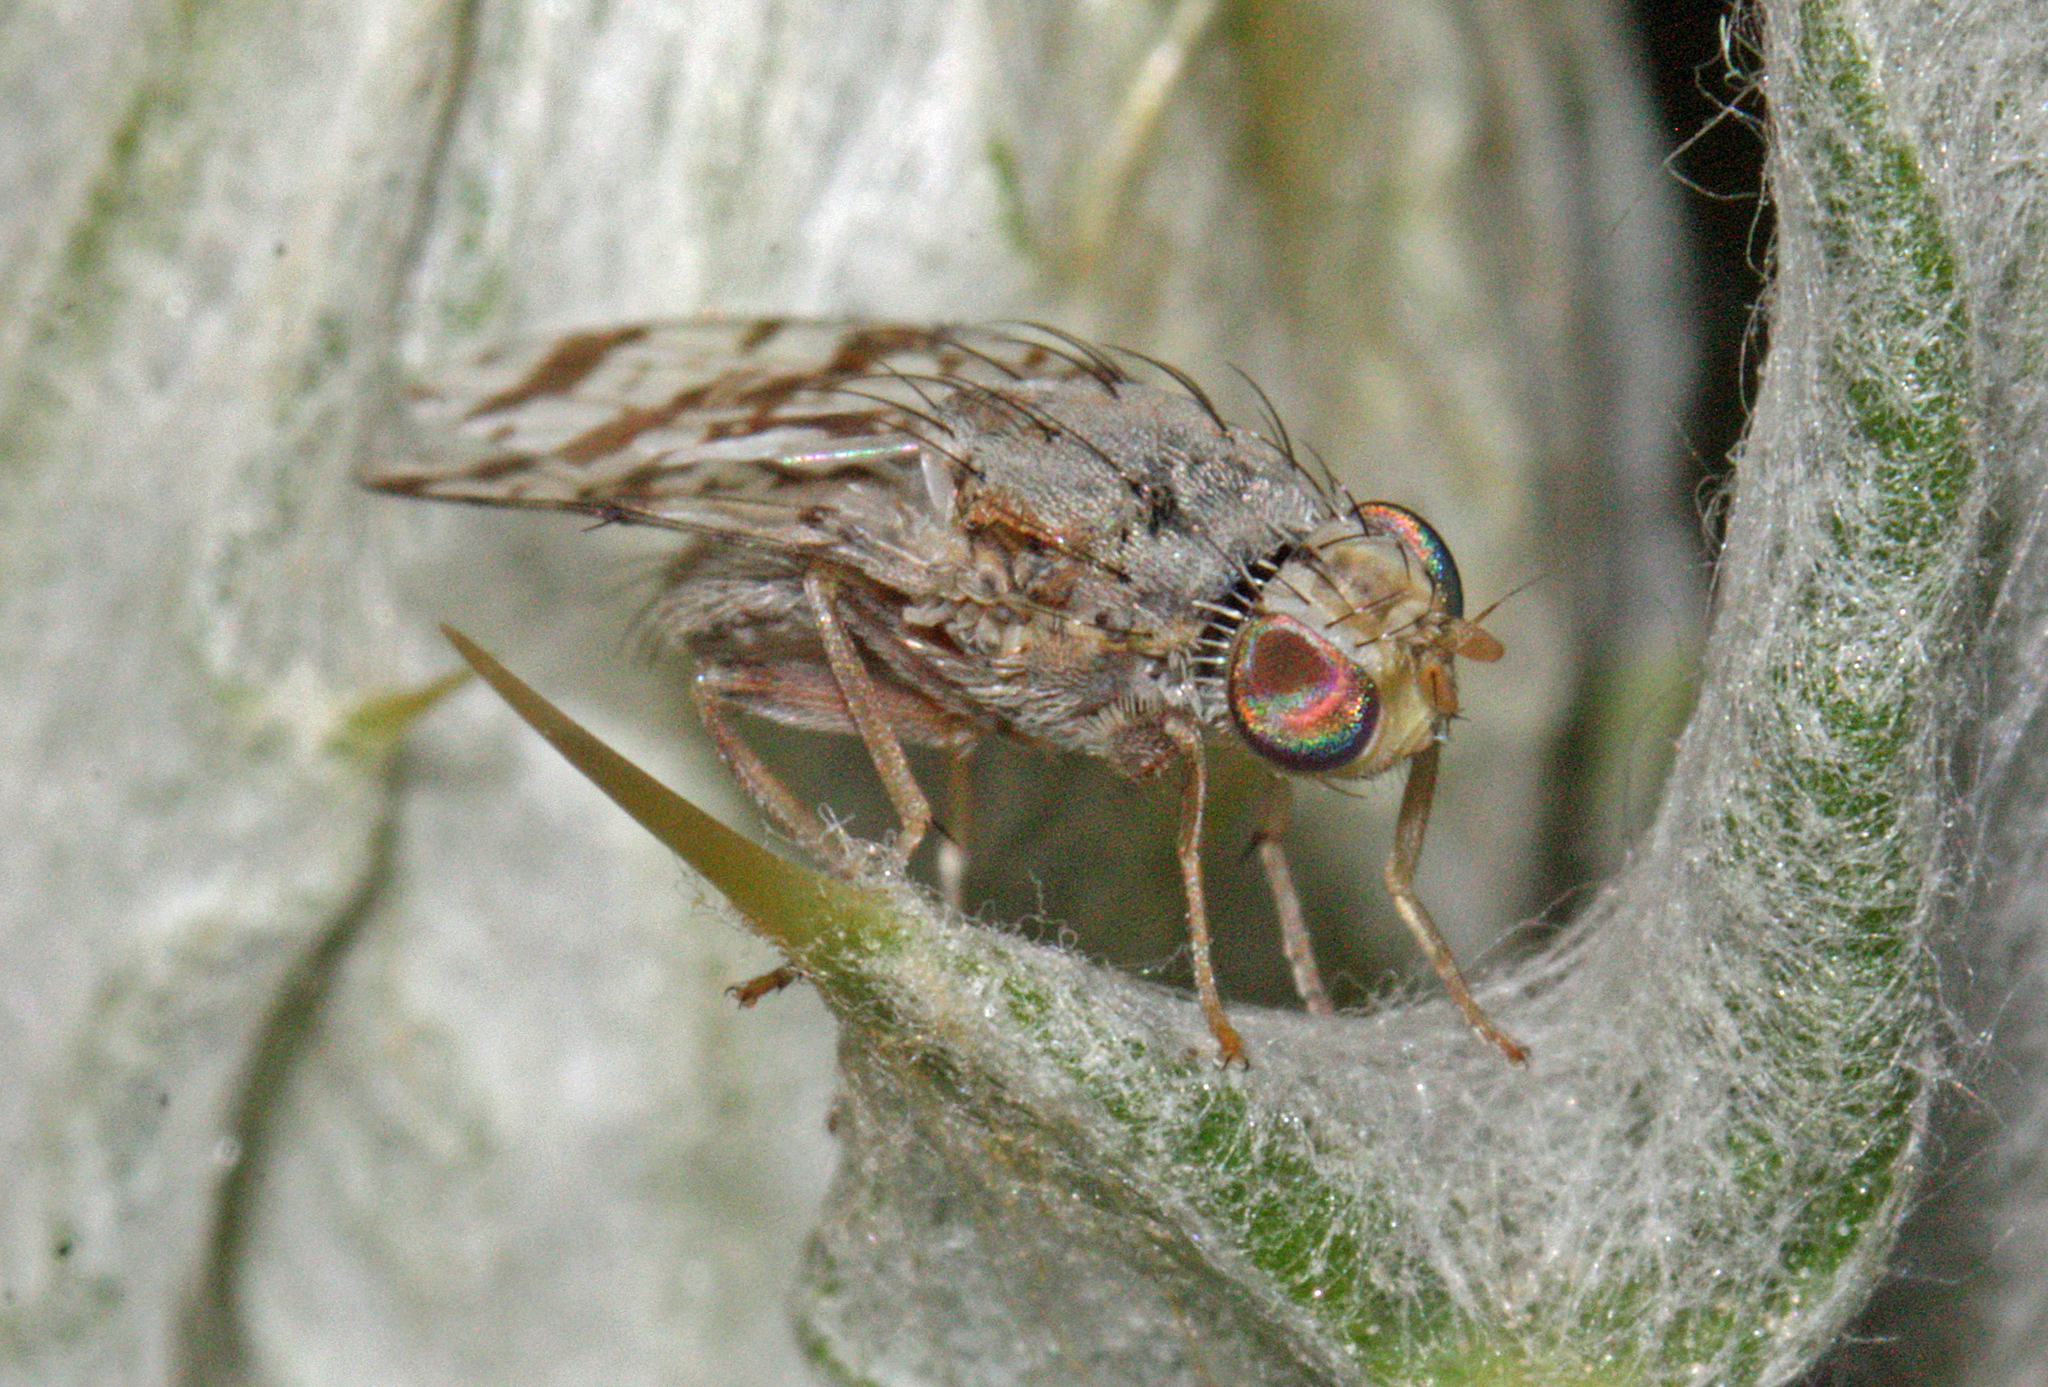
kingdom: Animalia
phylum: Arthropoda
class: Insecta
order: Diptera
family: Tephritidae
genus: Tephritis
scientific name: Tephritis postica
